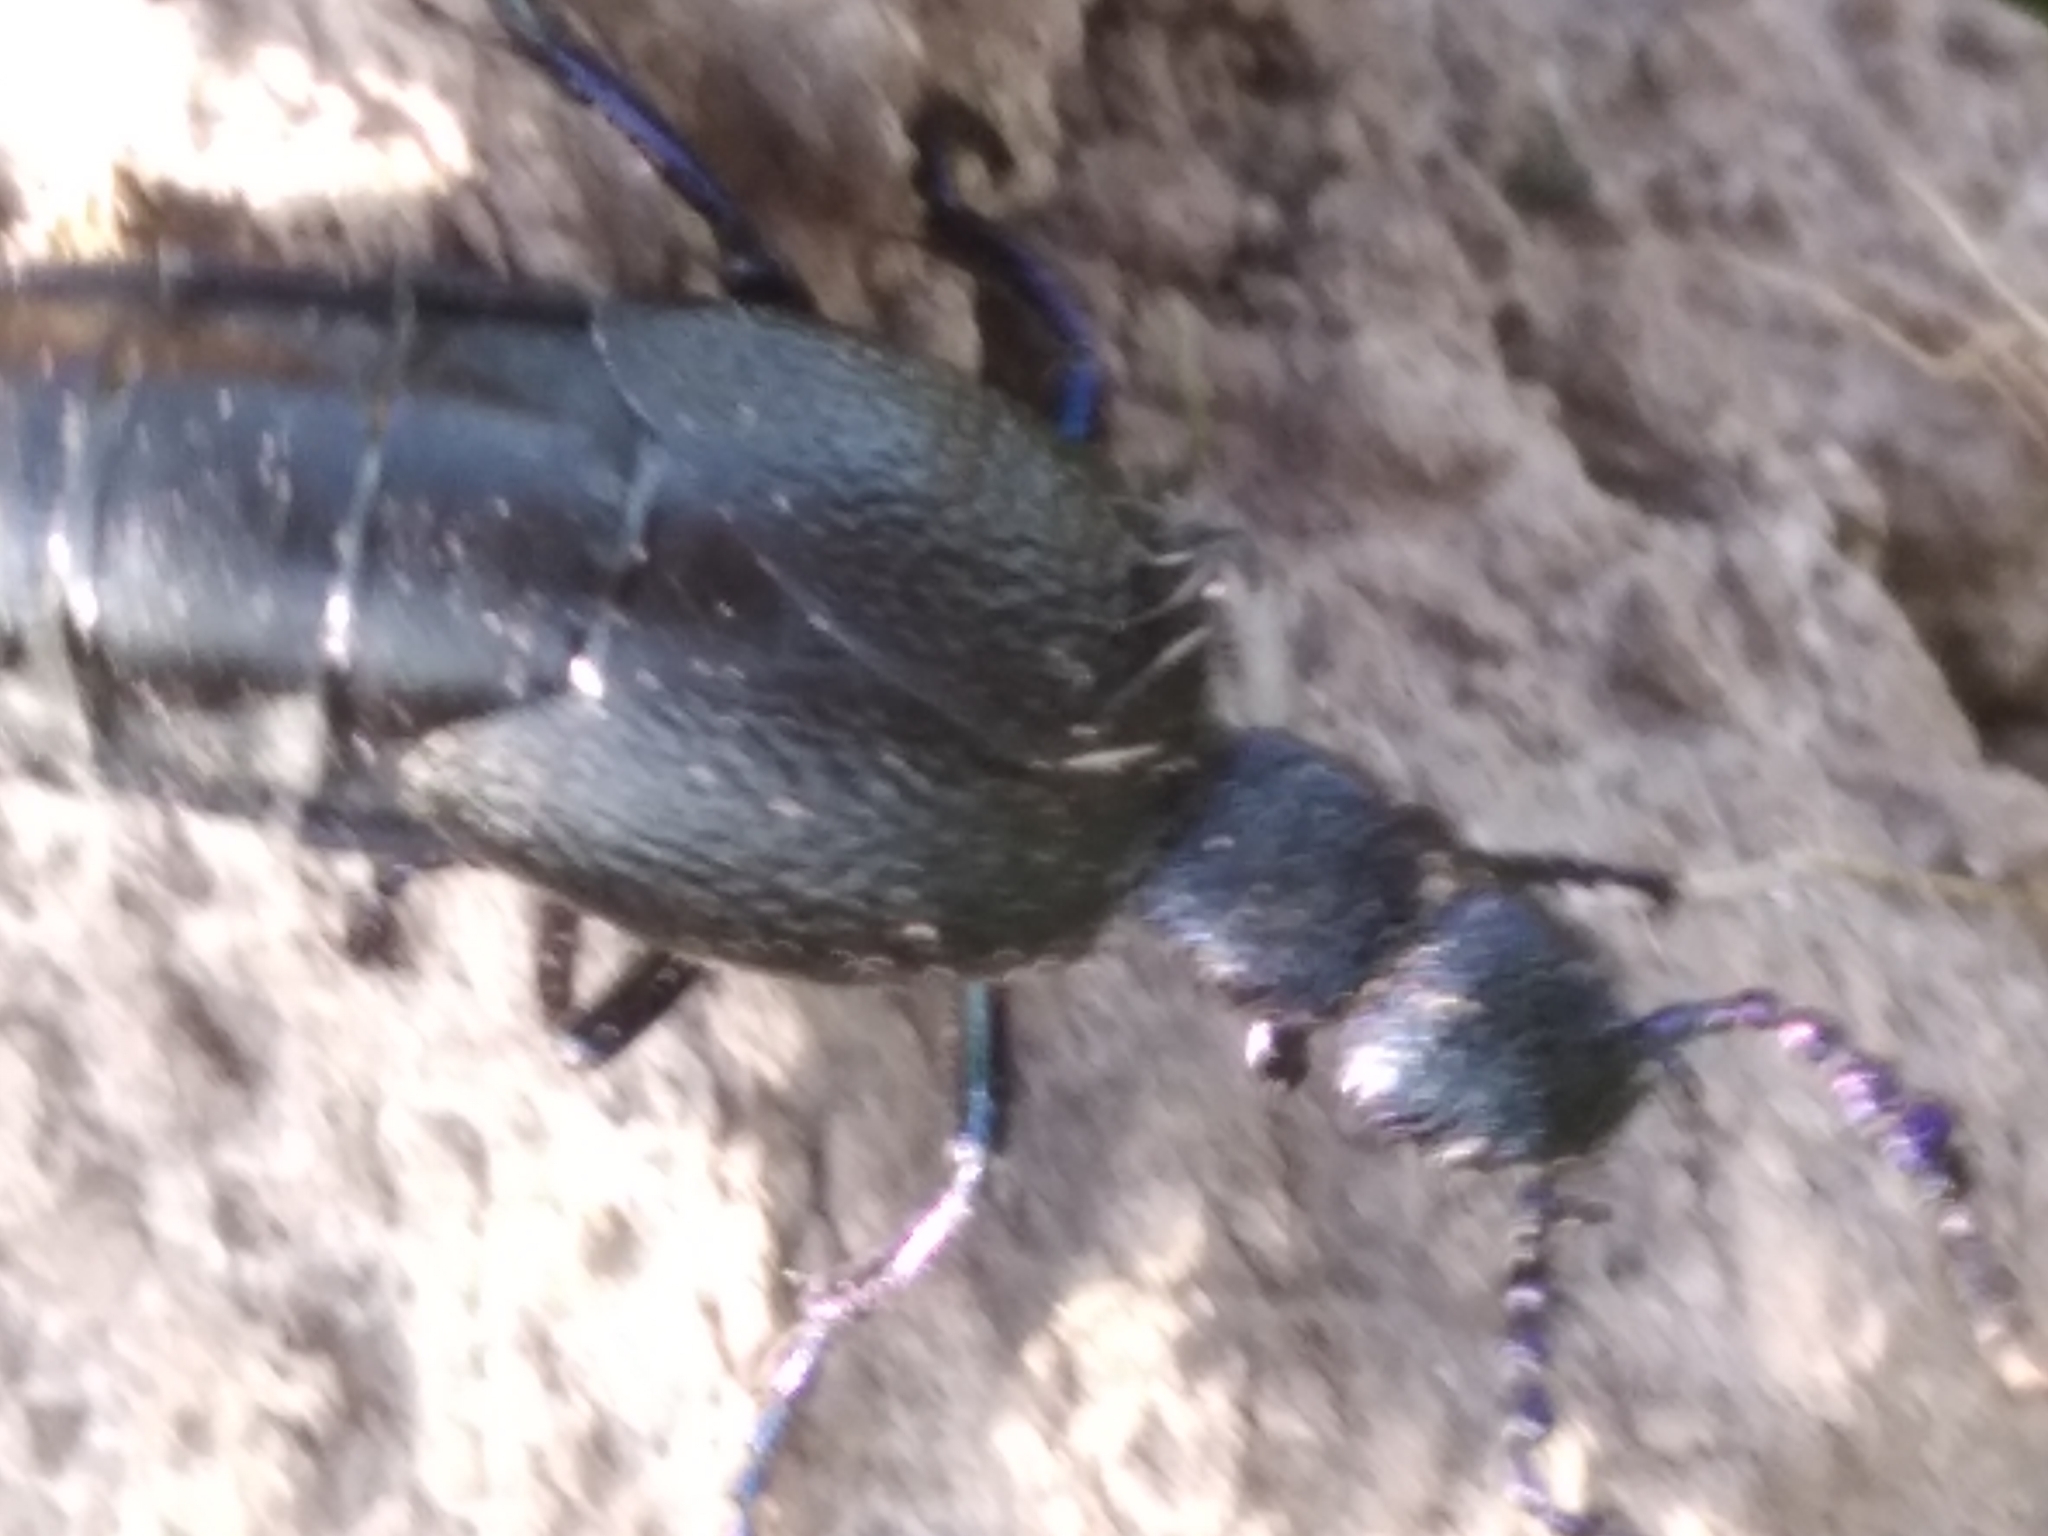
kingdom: Animalia
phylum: Arthropoda
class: Insecta
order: Coleoptera
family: Meloidae
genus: Meloe
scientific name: Meloe proscarabaeus
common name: Black oil-beetle
